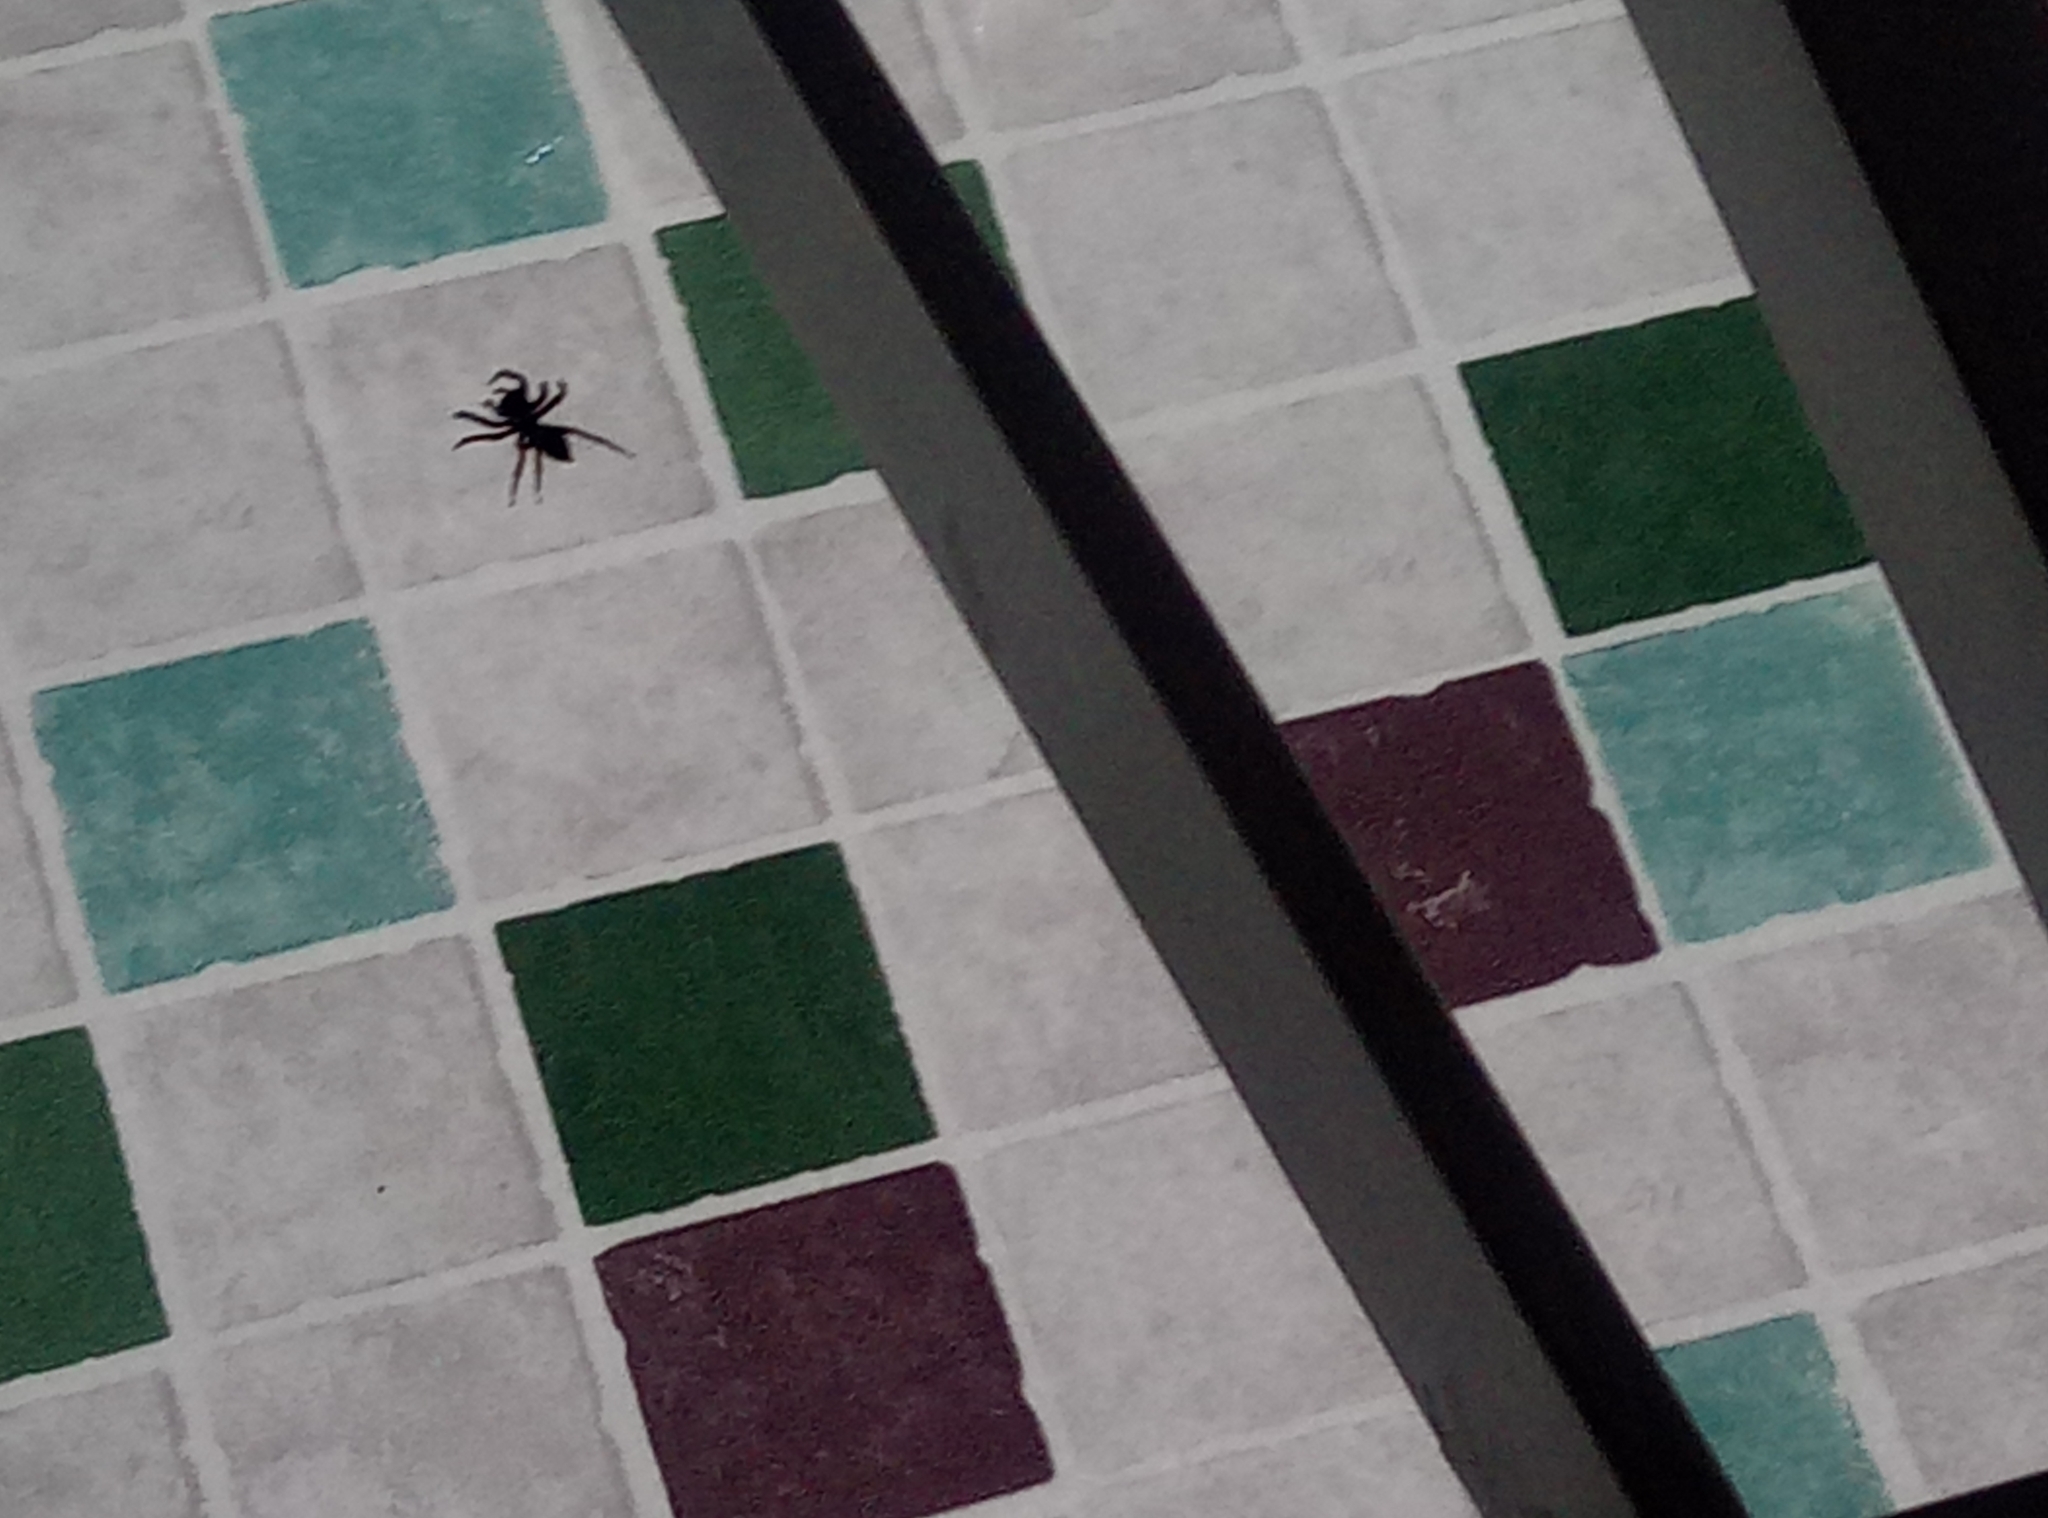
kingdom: Animalia
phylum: Arthropoda
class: Arachnida
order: Araneae
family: Salticidae
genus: Hasarius
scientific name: Hasarius adansoni
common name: Jumping spider
